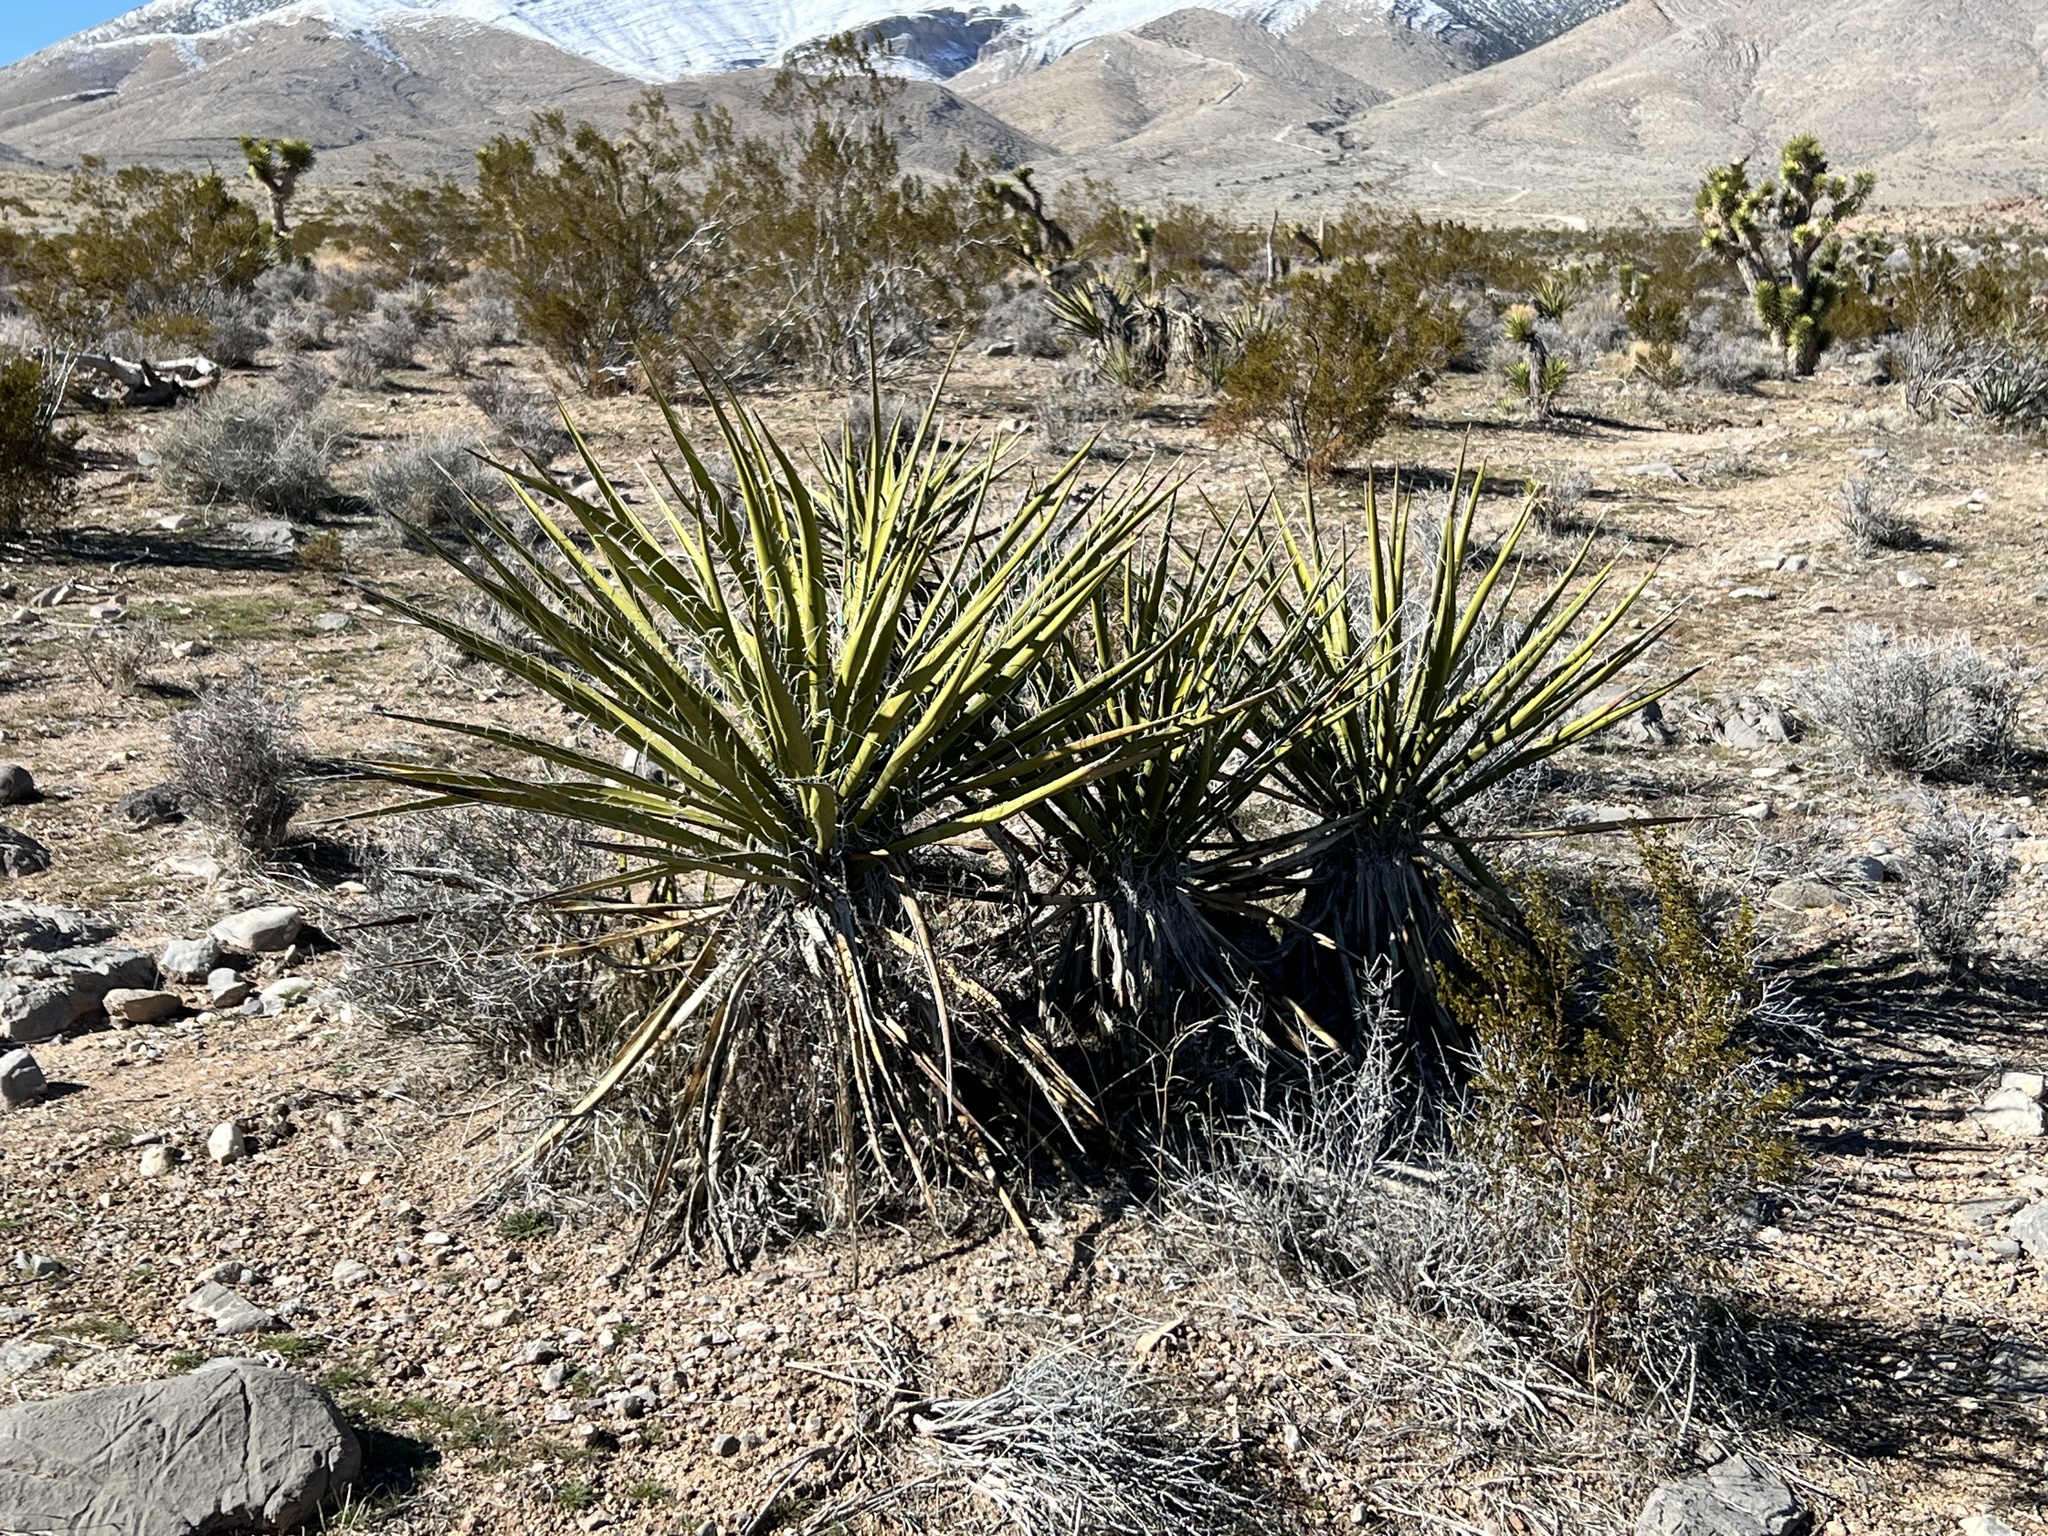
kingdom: Plantae
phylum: Tracheophyta
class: Liliopsida
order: Asparagales
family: Asparagaceae
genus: Yucca
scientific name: Yucca schidigera
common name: Mojave yucca
